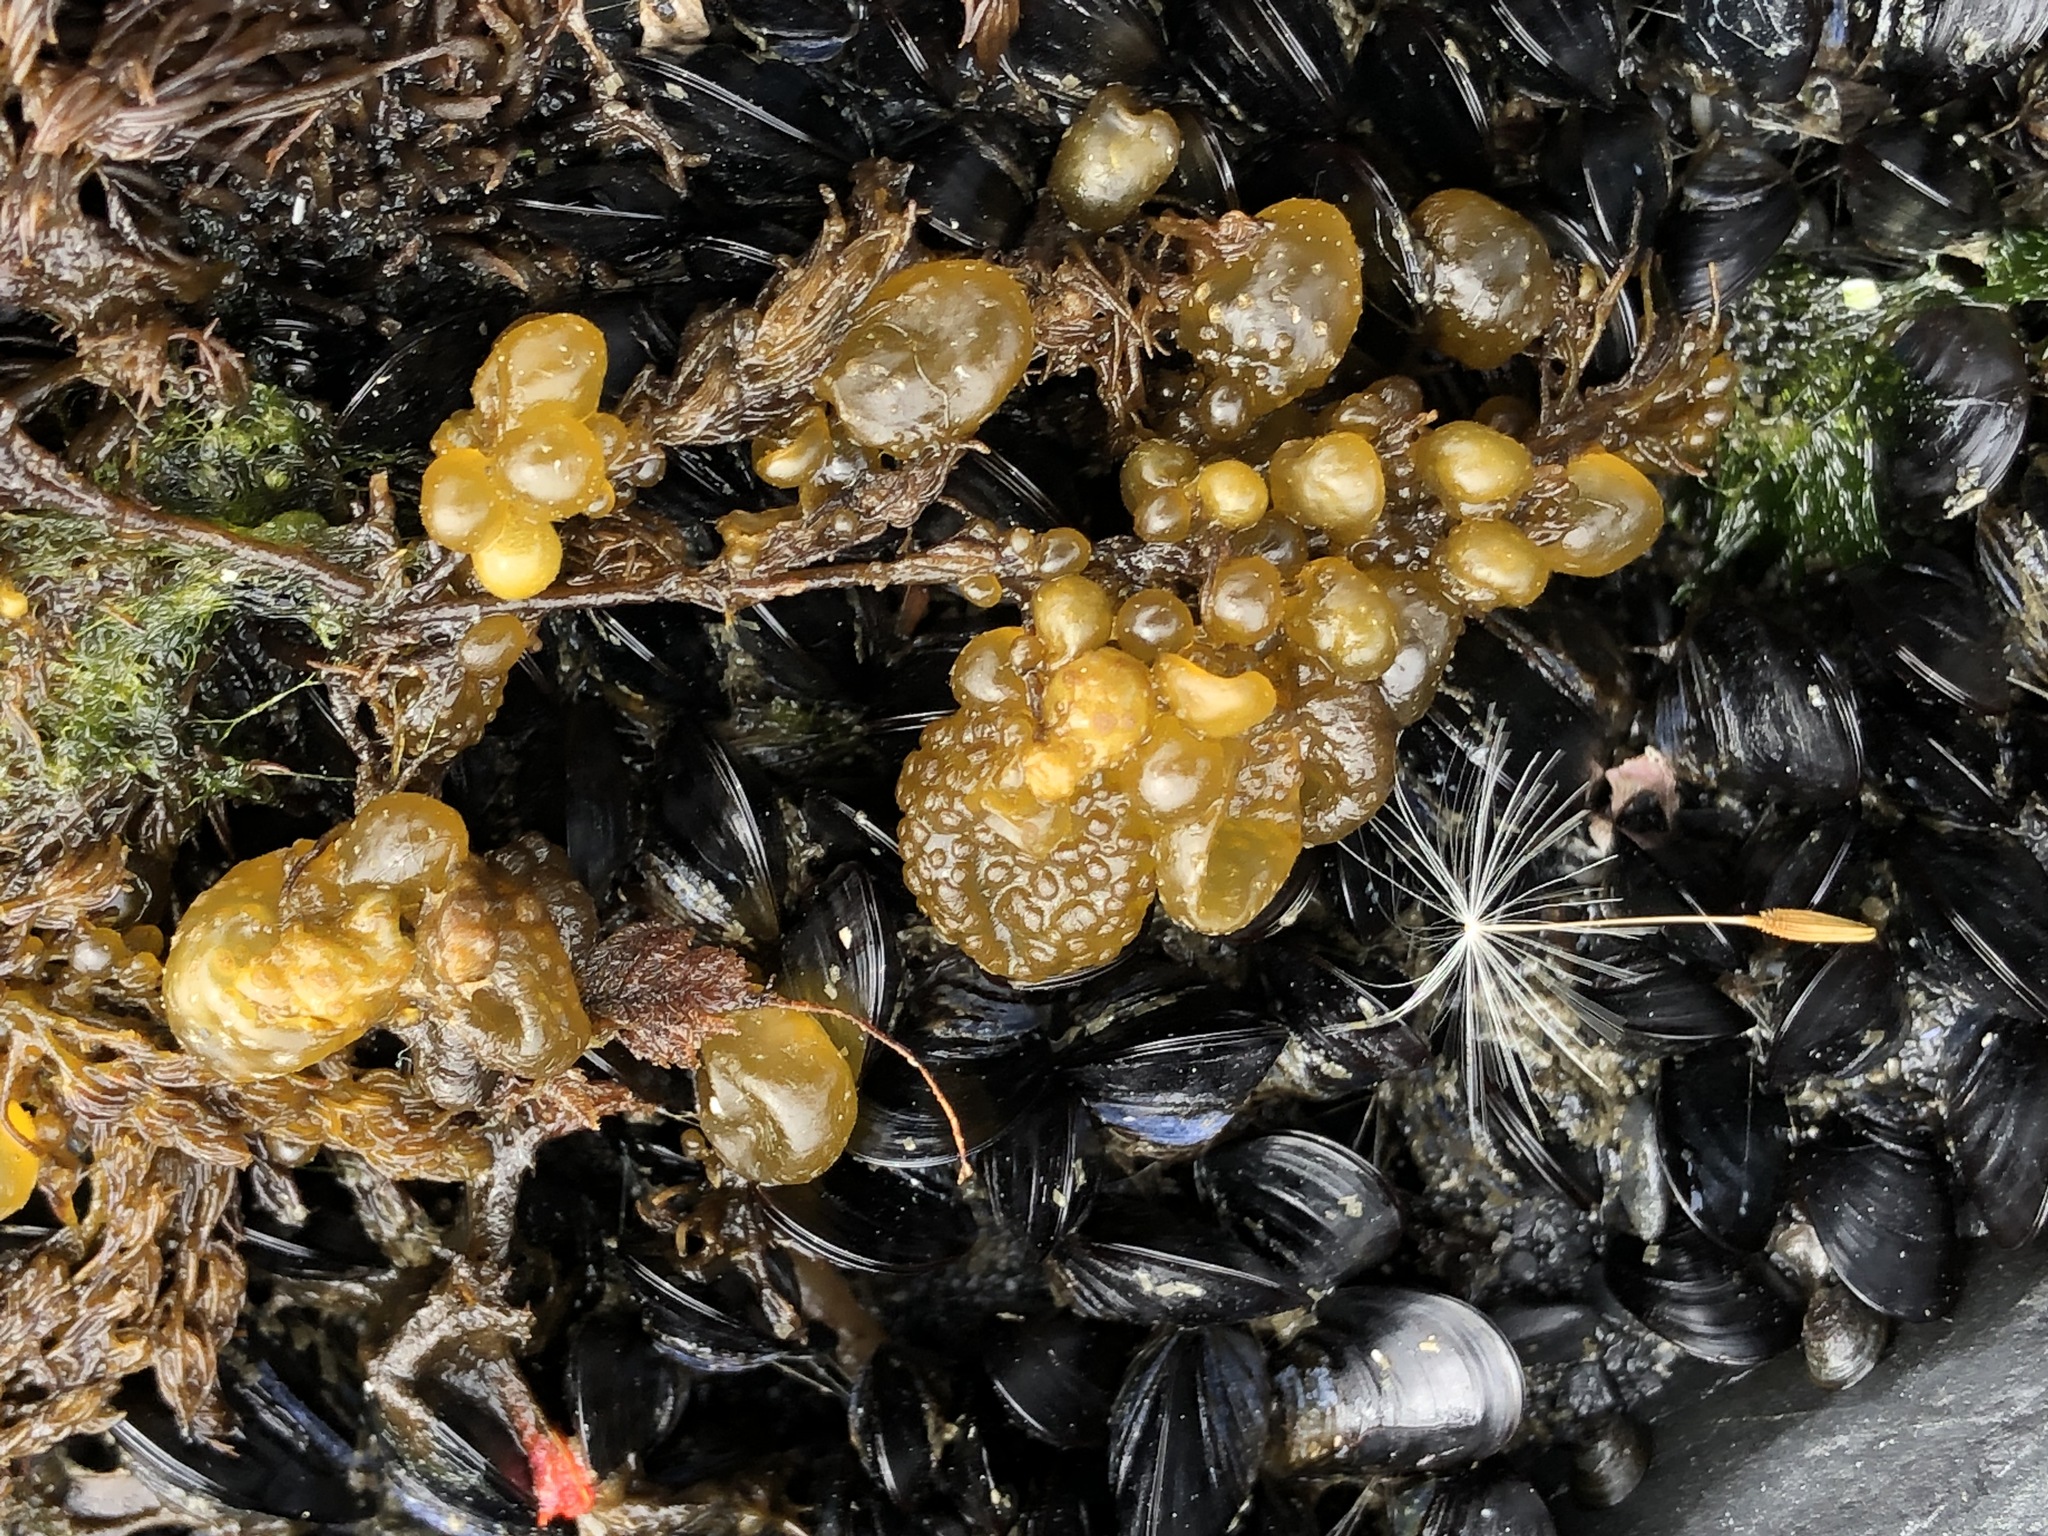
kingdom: Chromista
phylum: Ochrophyta
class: Phaeophyceae
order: Dictyosiphonales
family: Punctariaceae
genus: Soranthera
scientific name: Soranthera ulvoidea
